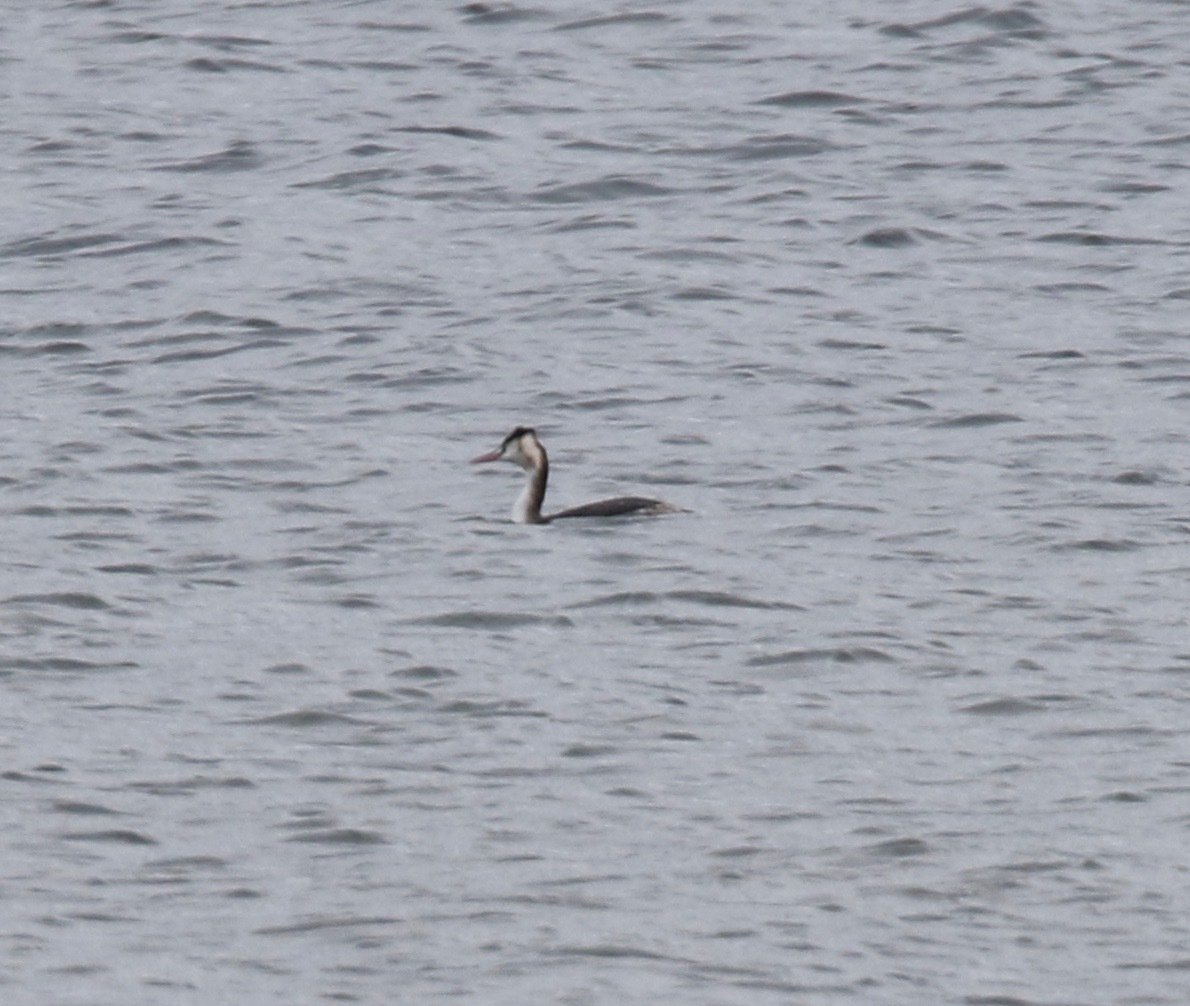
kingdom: Animalia
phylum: Chordata
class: Aves
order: Podicipediformes
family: Podicipedidae
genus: Podiceps
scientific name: Podiceps cristatus
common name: Great crested grebe
